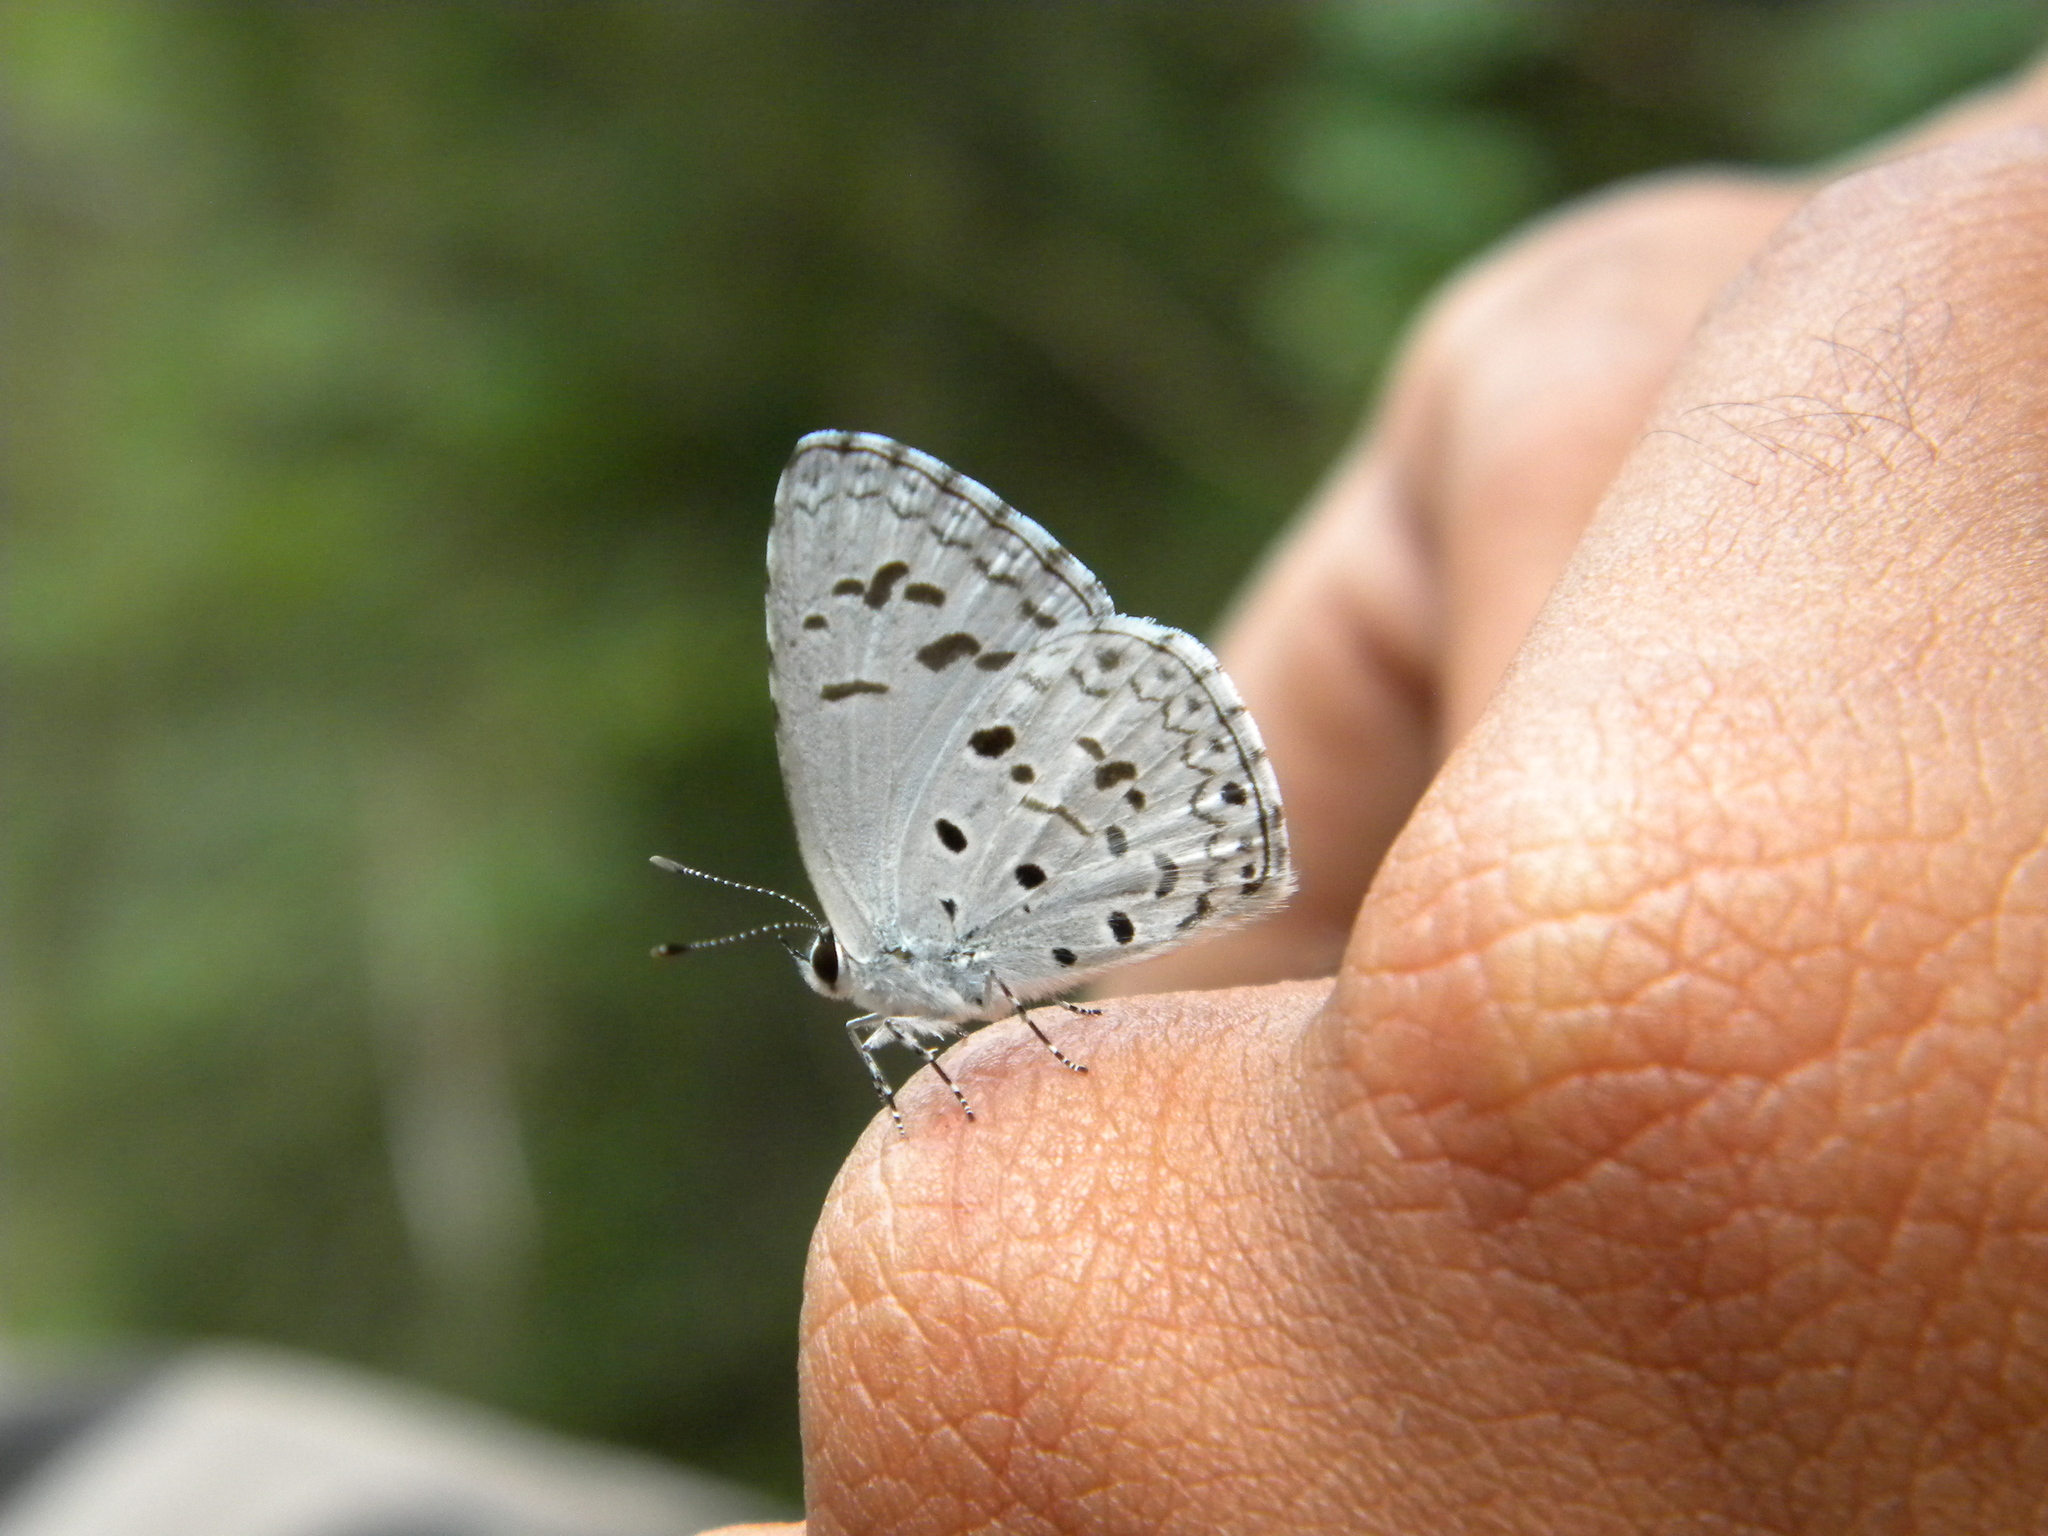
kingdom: Animalia
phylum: Arthropoda
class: Insecta
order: Lepidoptera
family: Lycaenidae
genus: Acytolepis
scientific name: Acytolepis puspa
